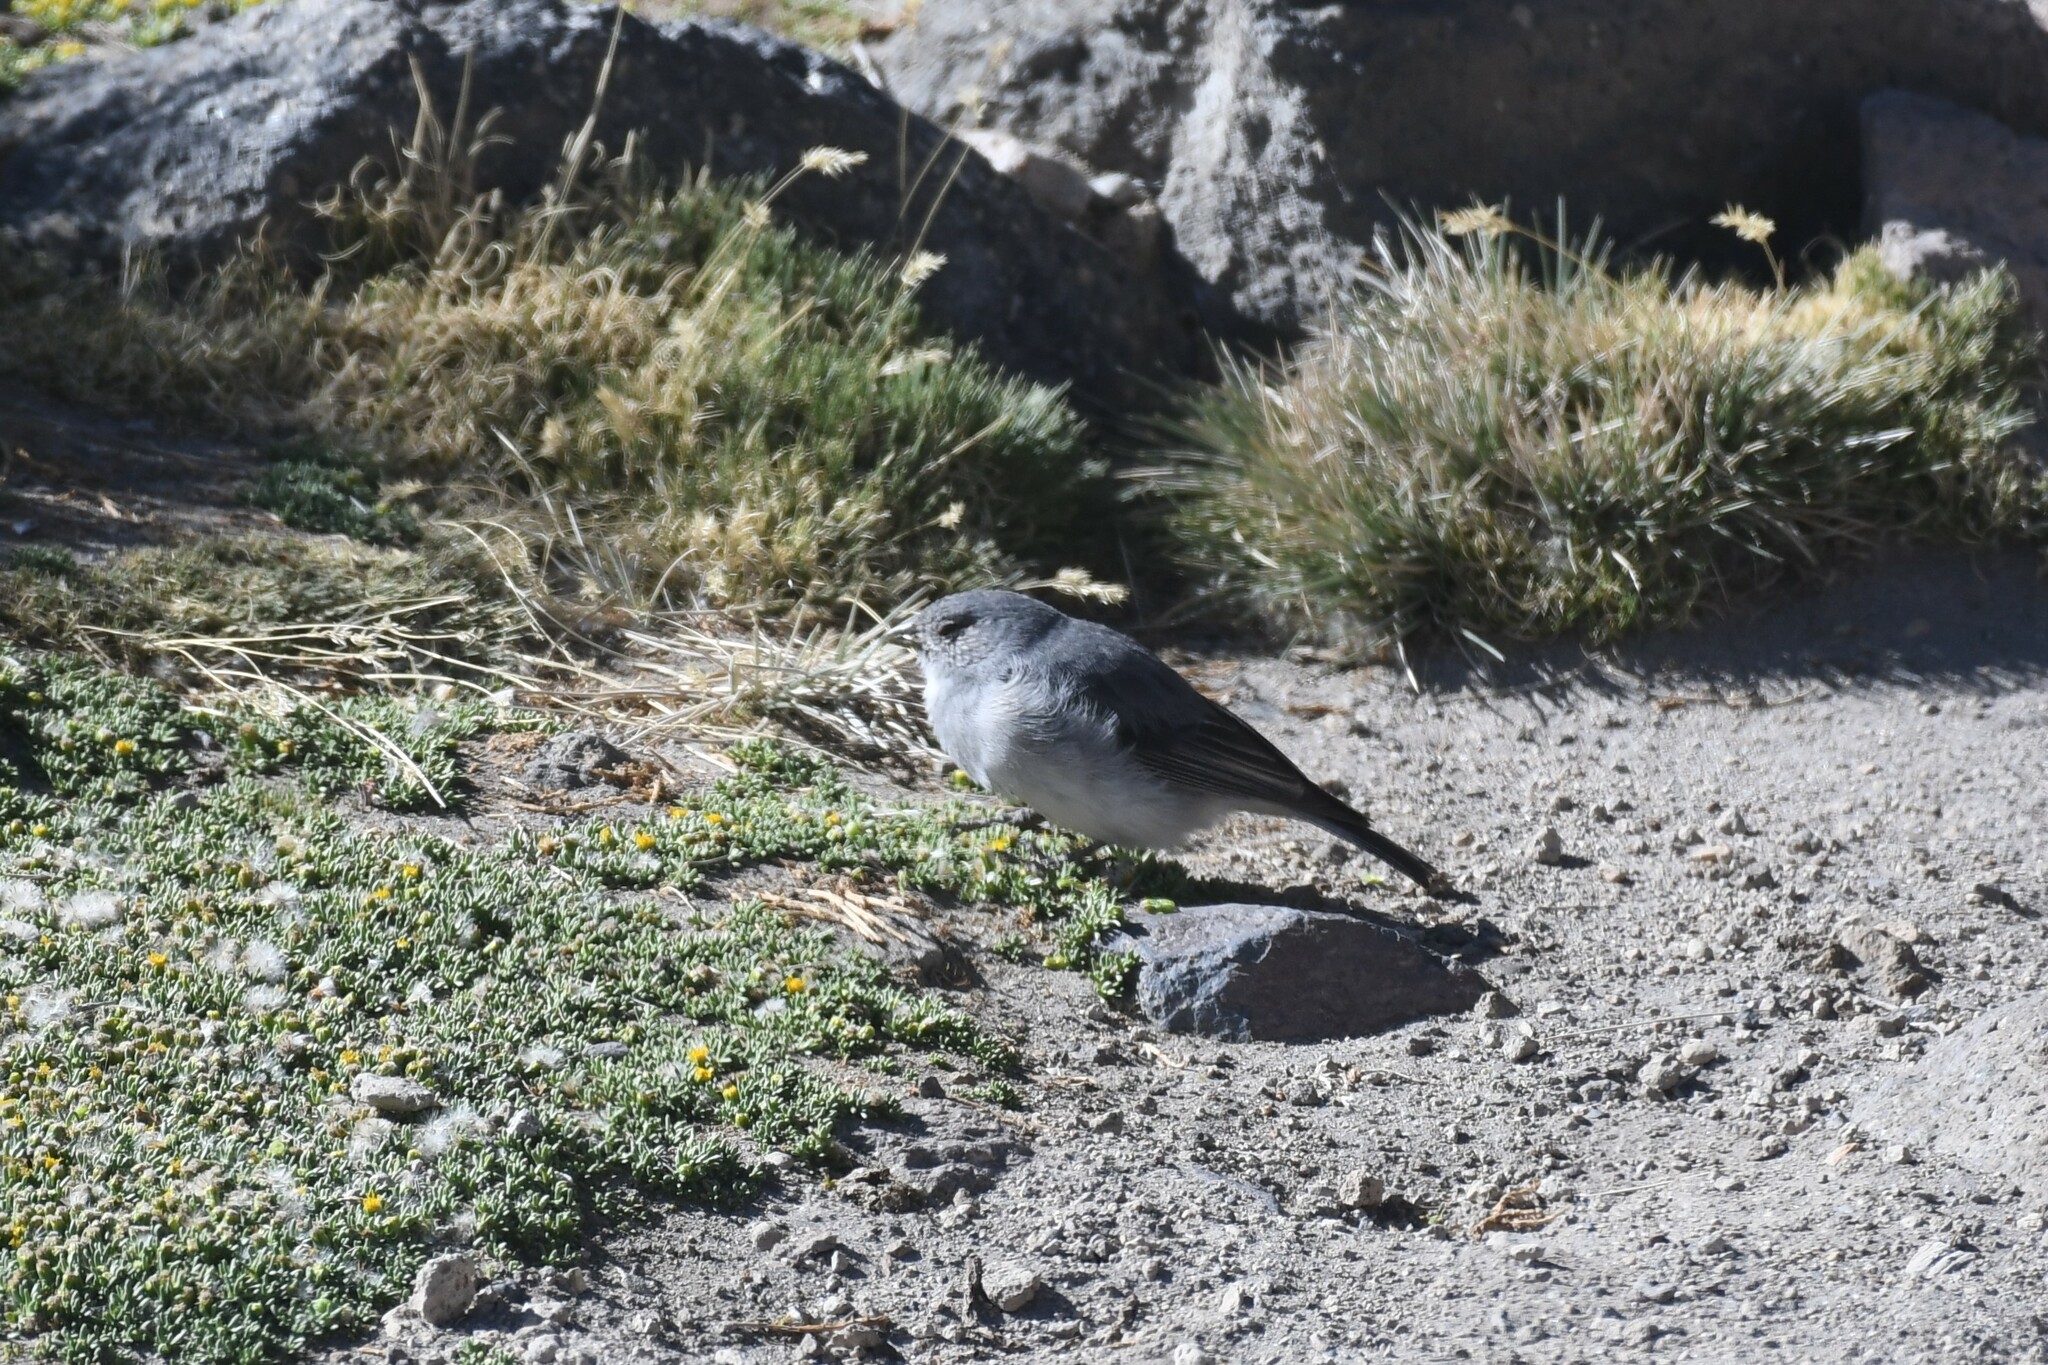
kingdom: Animalia
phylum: Chordata
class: Aves
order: Passeriformes
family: Thraupidae
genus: Idiopsar
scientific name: Idiopsar erythronotus
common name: White-throated sierra finch
